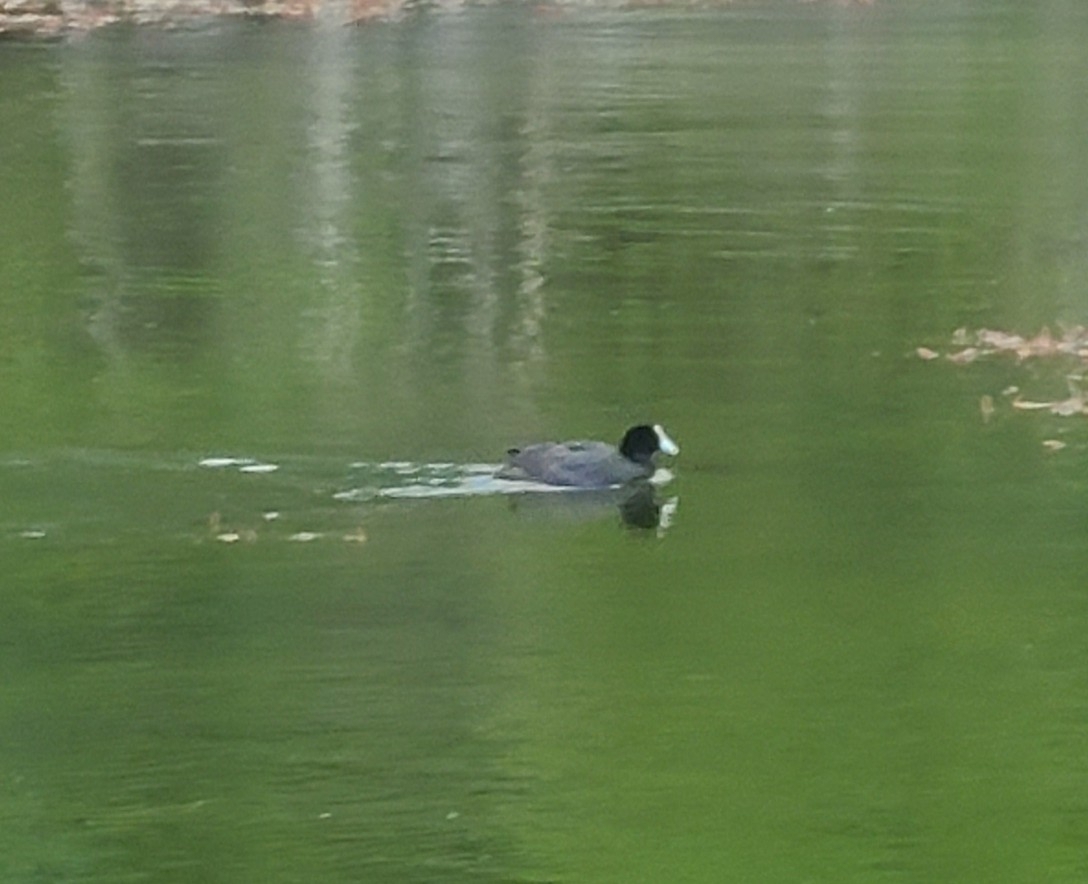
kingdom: Animalia
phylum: Chordata
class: Aves
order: Gruiformes
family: Rallidae
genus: Fulica
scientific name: Fulica atra
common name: Eurasian coot
